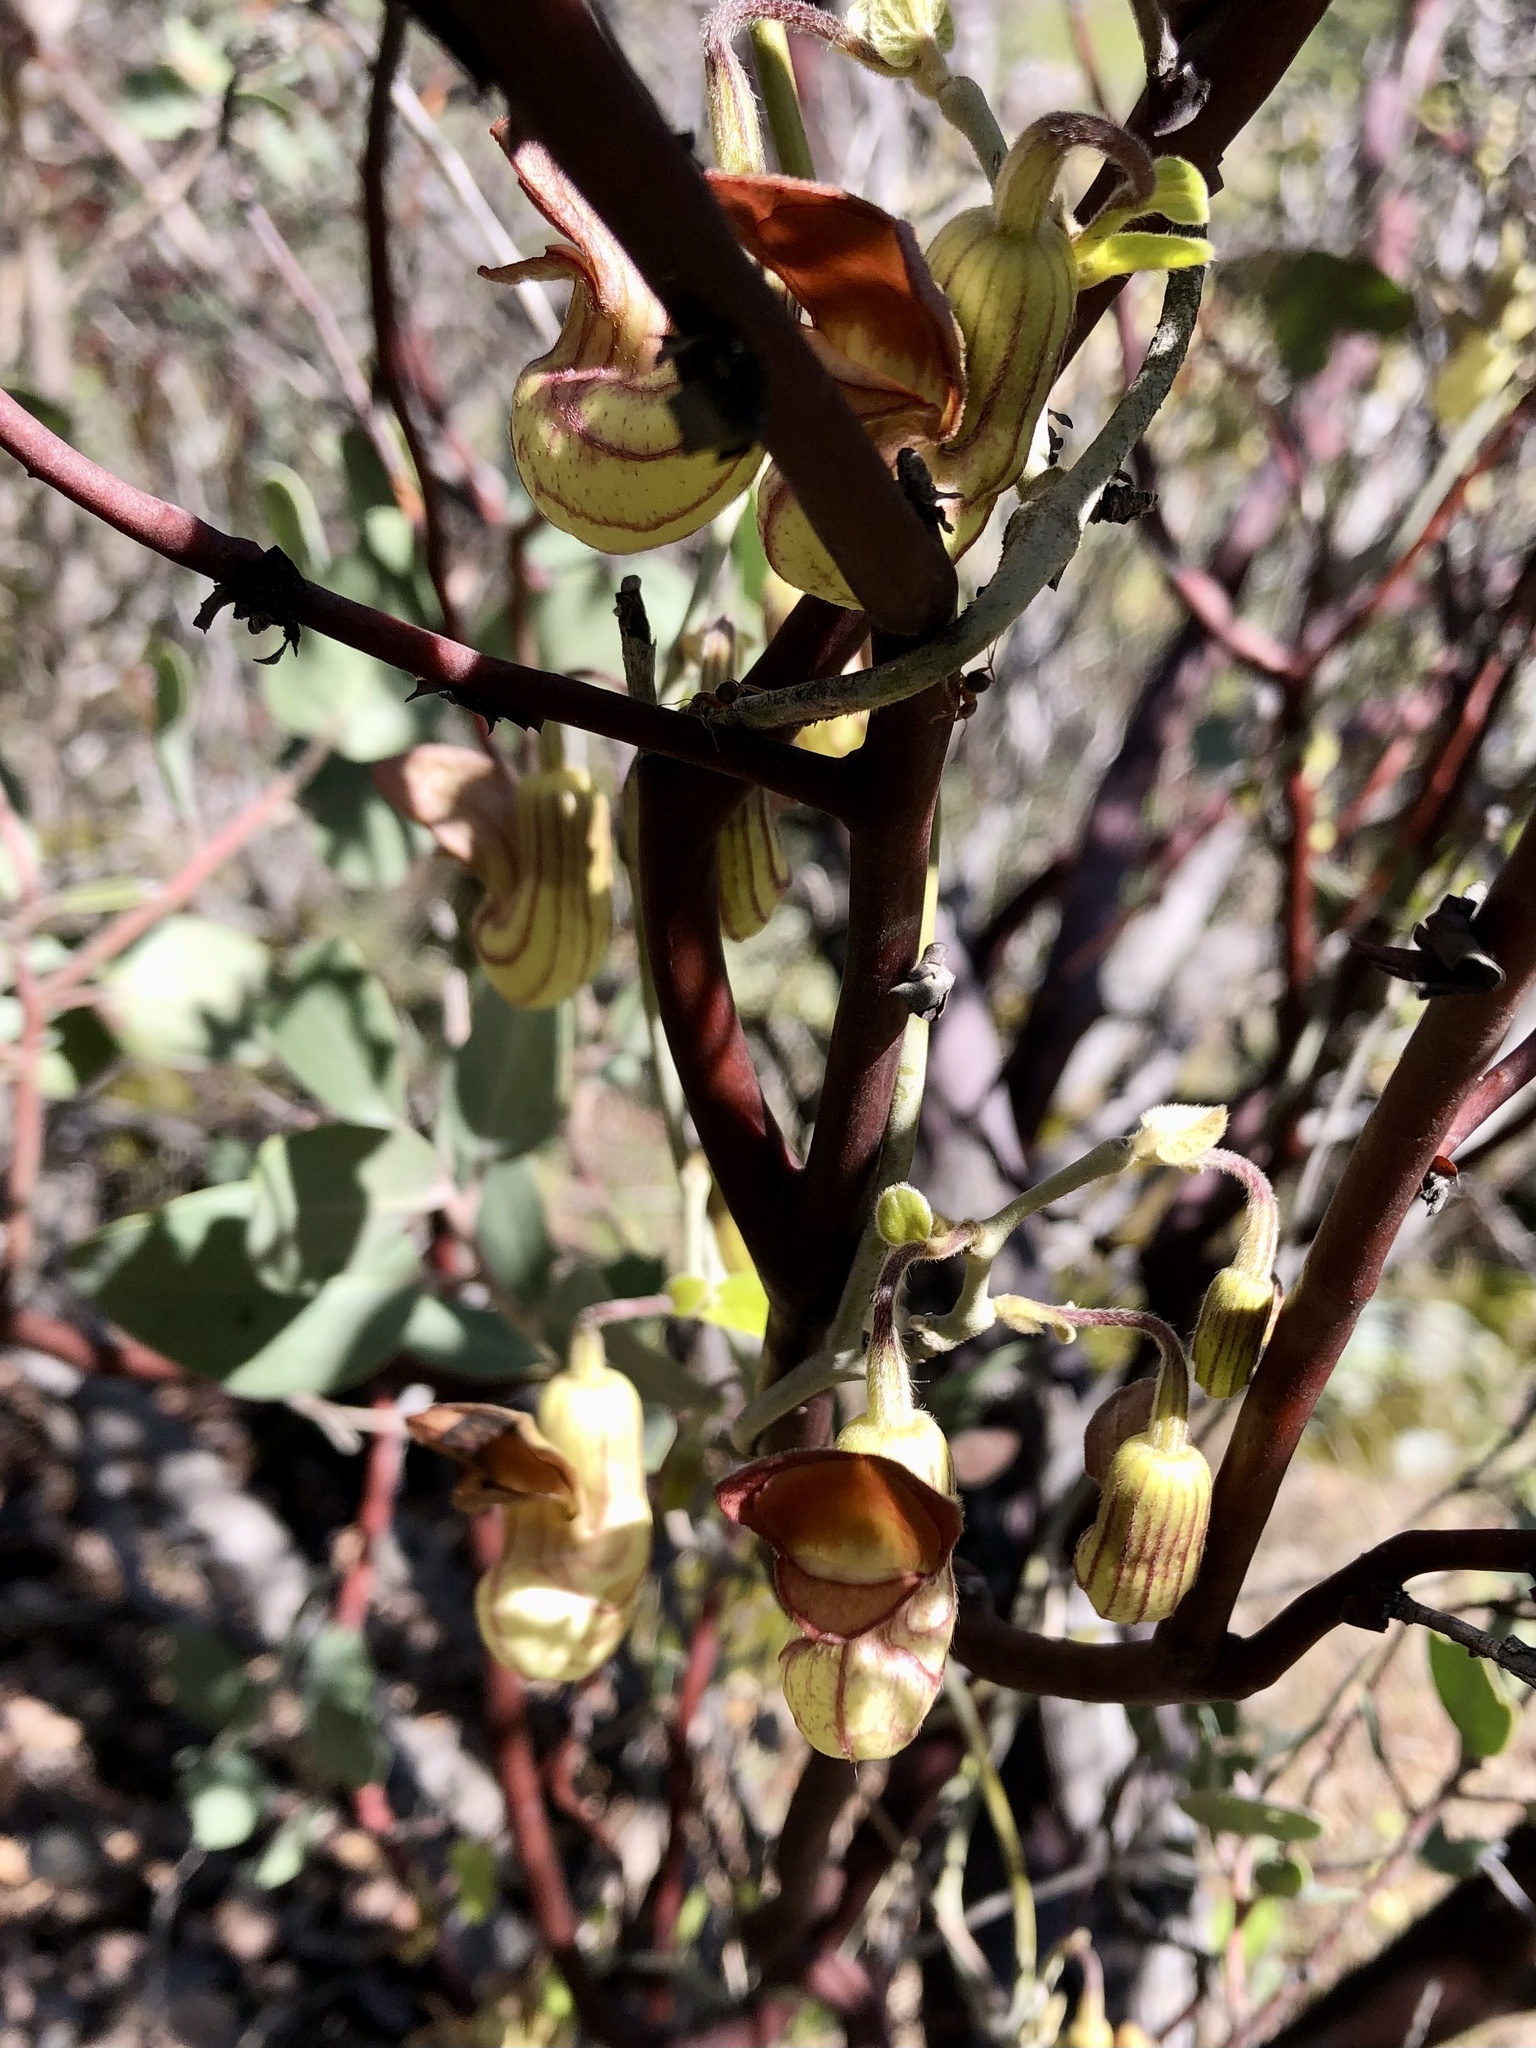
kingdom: Plantae
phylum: Tracheophyta
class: Magnoliopsida
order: Piperales
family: Aristolochiaceae
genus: Isotrema
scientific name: Isotrema californicum
